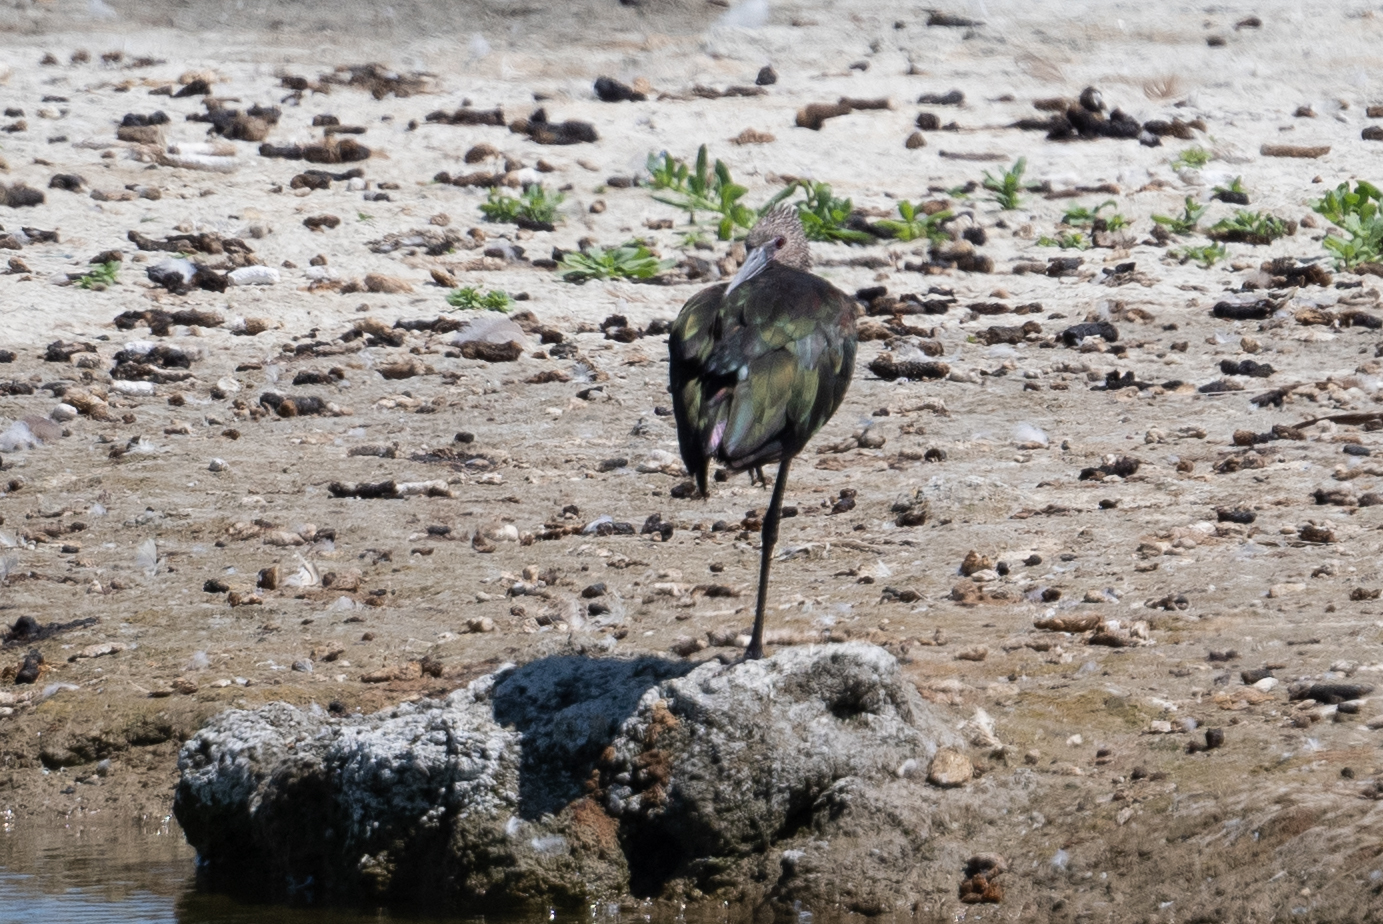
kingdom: Animalia
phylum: Chordata
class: Aves
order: Pelecaniformes
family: Threskiornithidae
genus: Plegadis
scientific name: Plegadis chihi
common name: White-faced ibis
